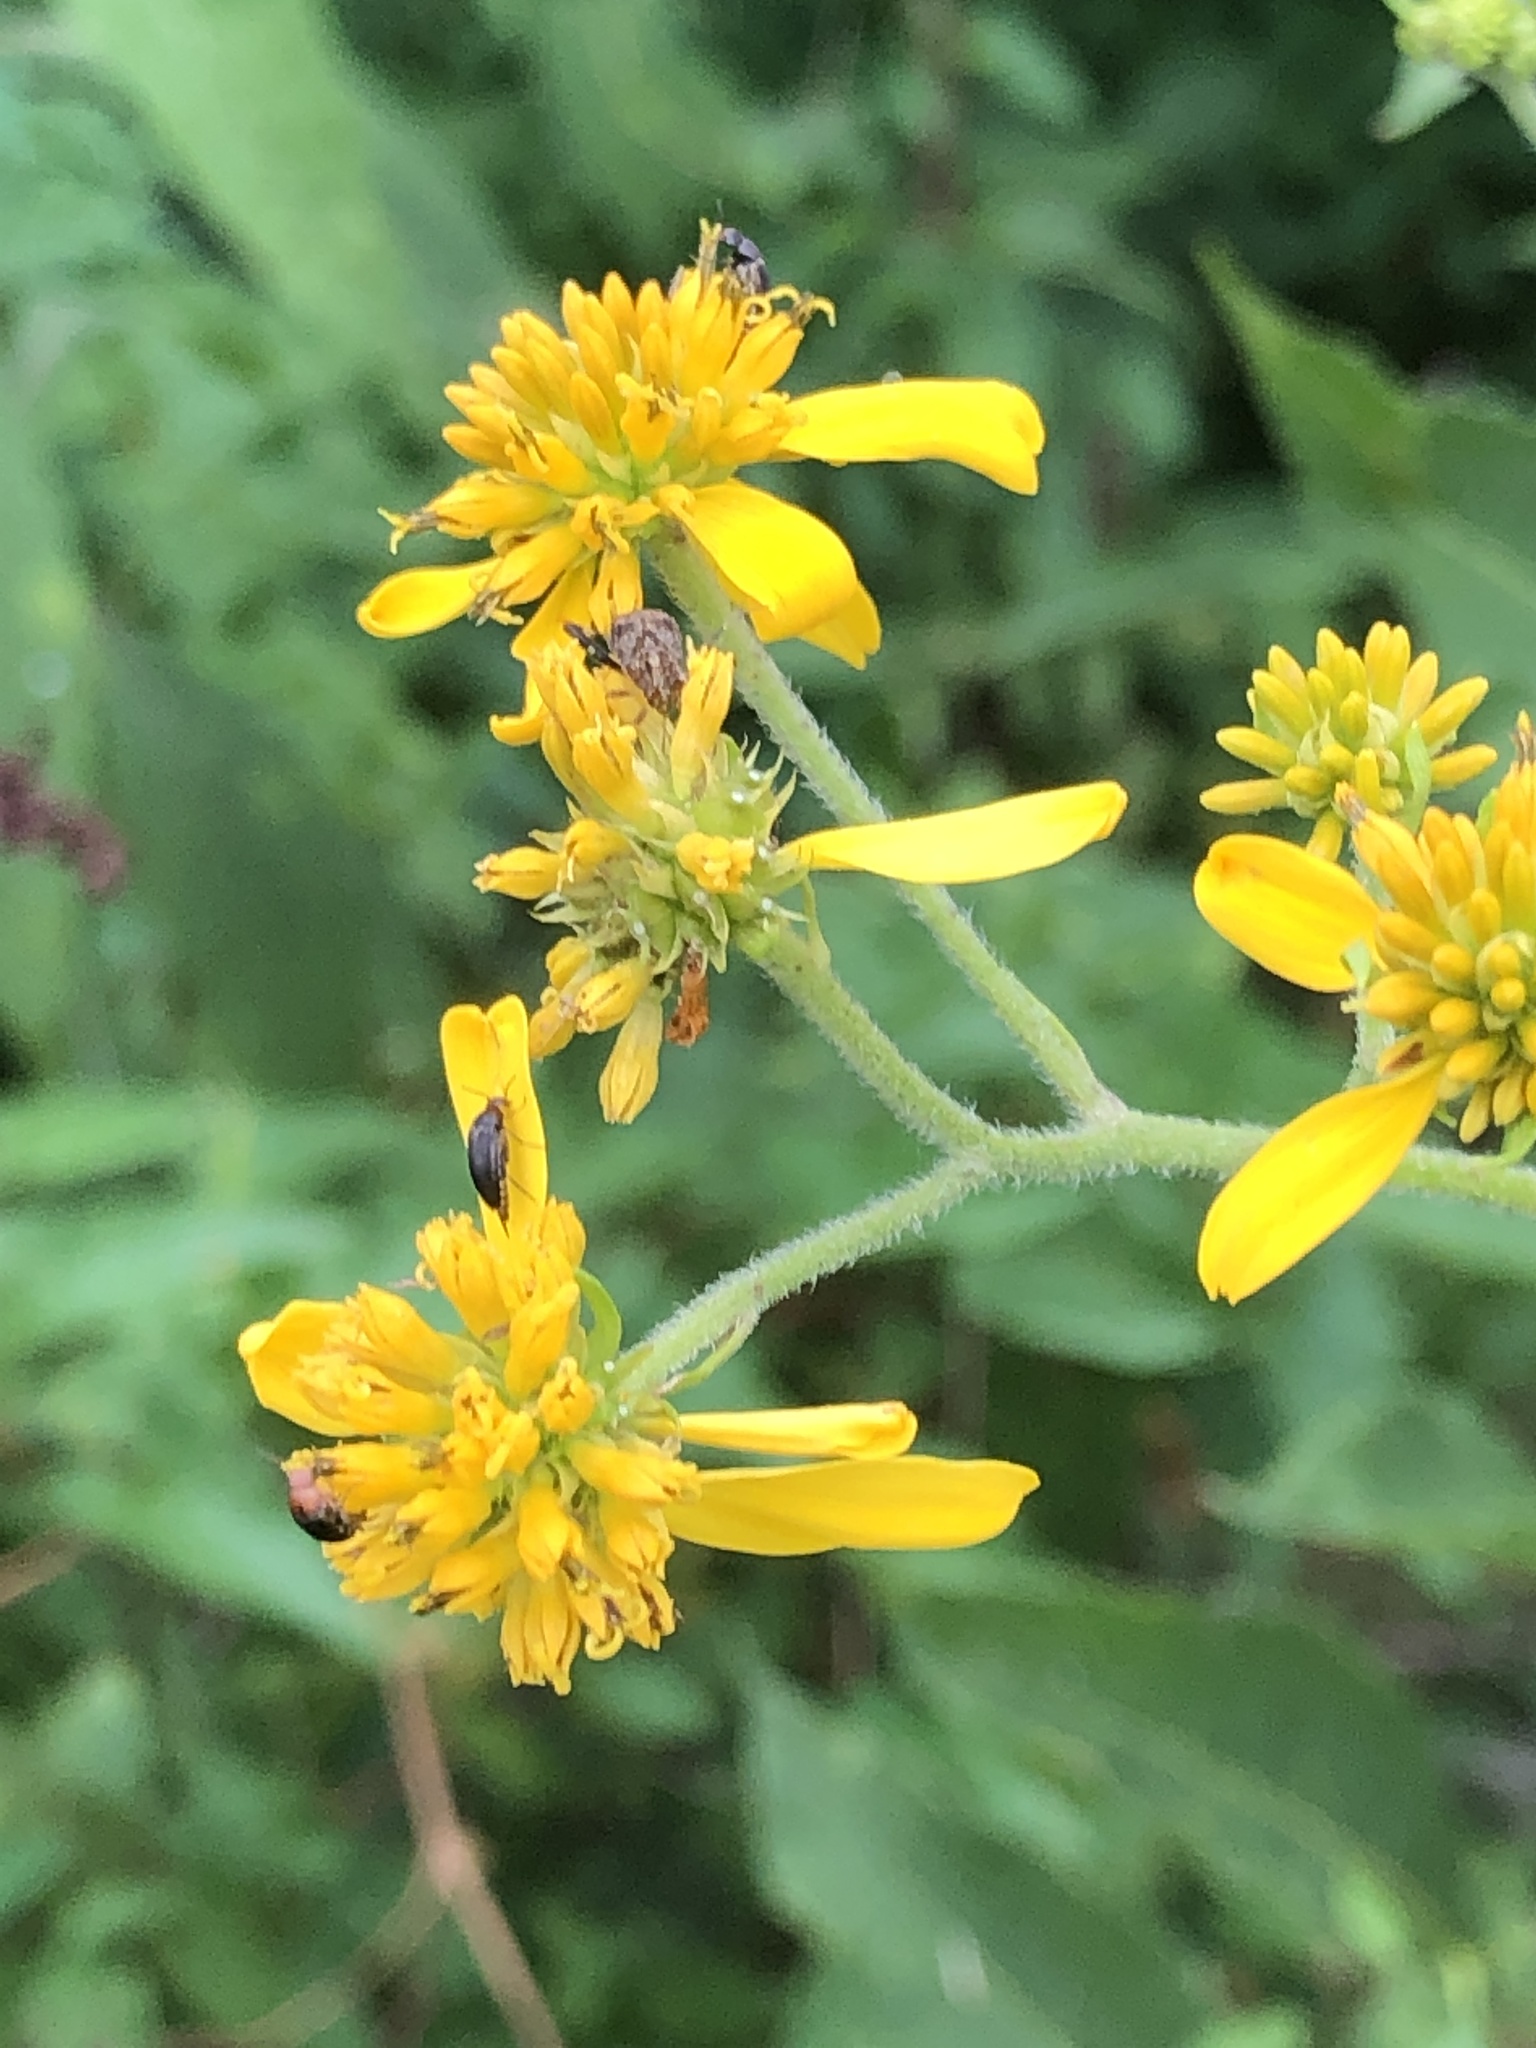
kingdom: Plantae
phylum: Tracheophyta
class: Magnoliopsida
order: Asterales
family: Asteraceae
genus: Verbesina
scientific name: Verbesina alternifolia
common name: Wingstem
